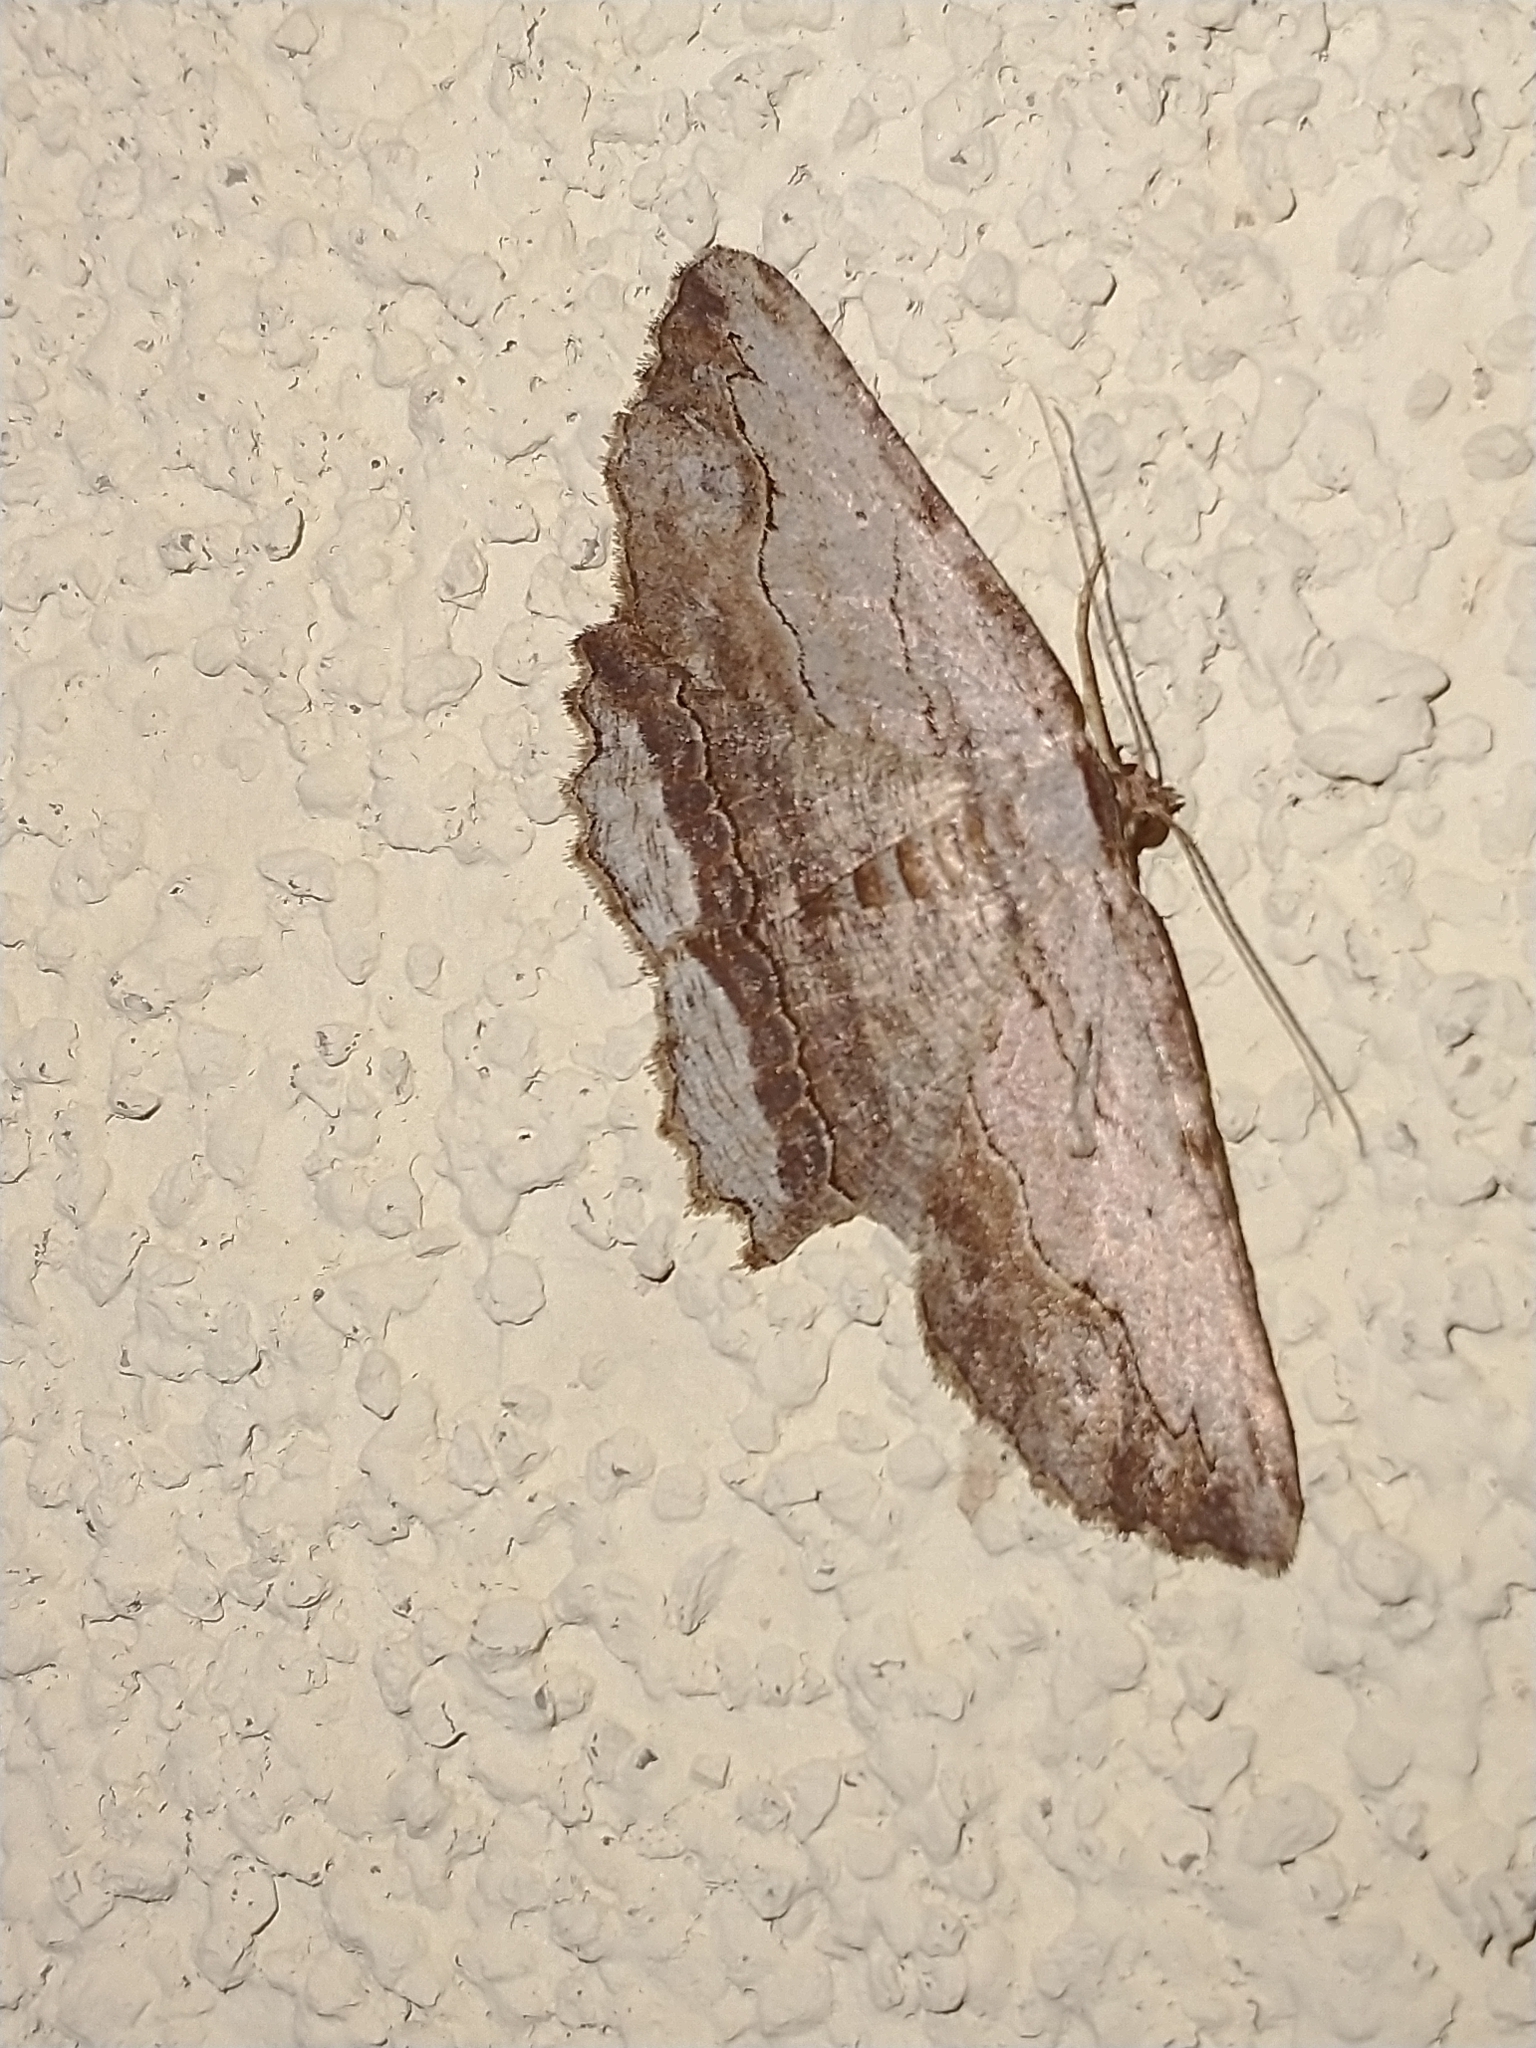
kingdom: Animalia
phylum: Arthropoda
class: Insecta
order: Lepidoptera
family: Geometridae
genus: Menophra
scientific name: Menophra abruptaria
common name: Waved umber
